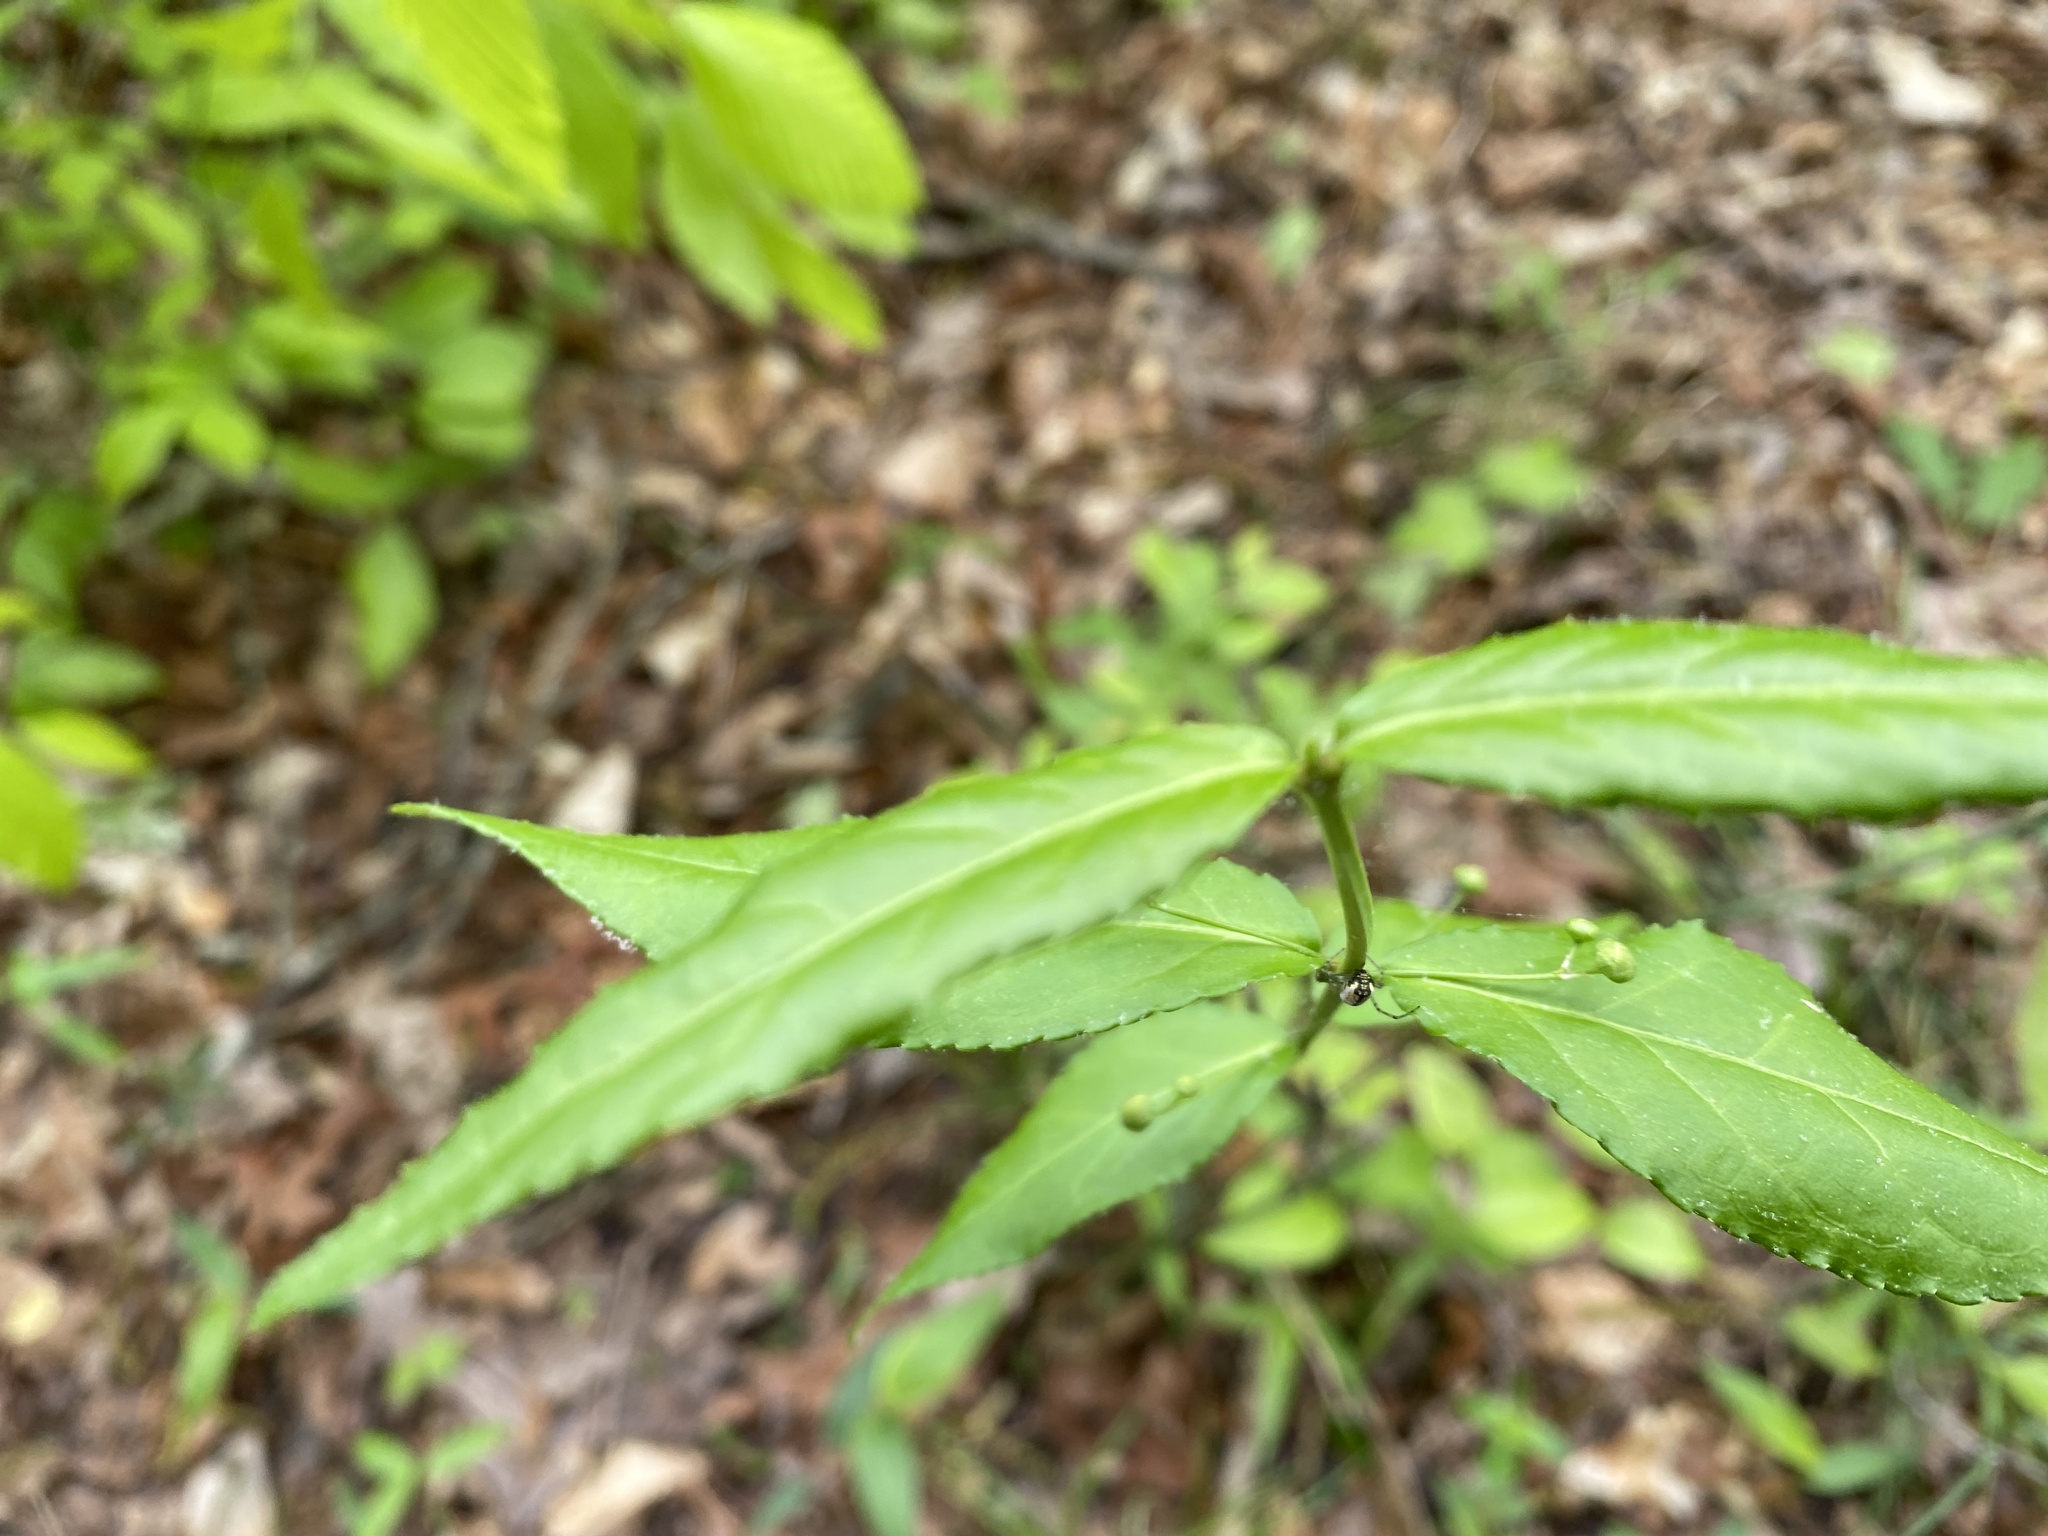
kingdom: Plantae
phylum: Tracheophyta
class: Magnoliopsida
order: Celastrales
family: Celastraceae
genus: Euonymus
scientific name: Euonymus americanus
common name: Bursting-heart
